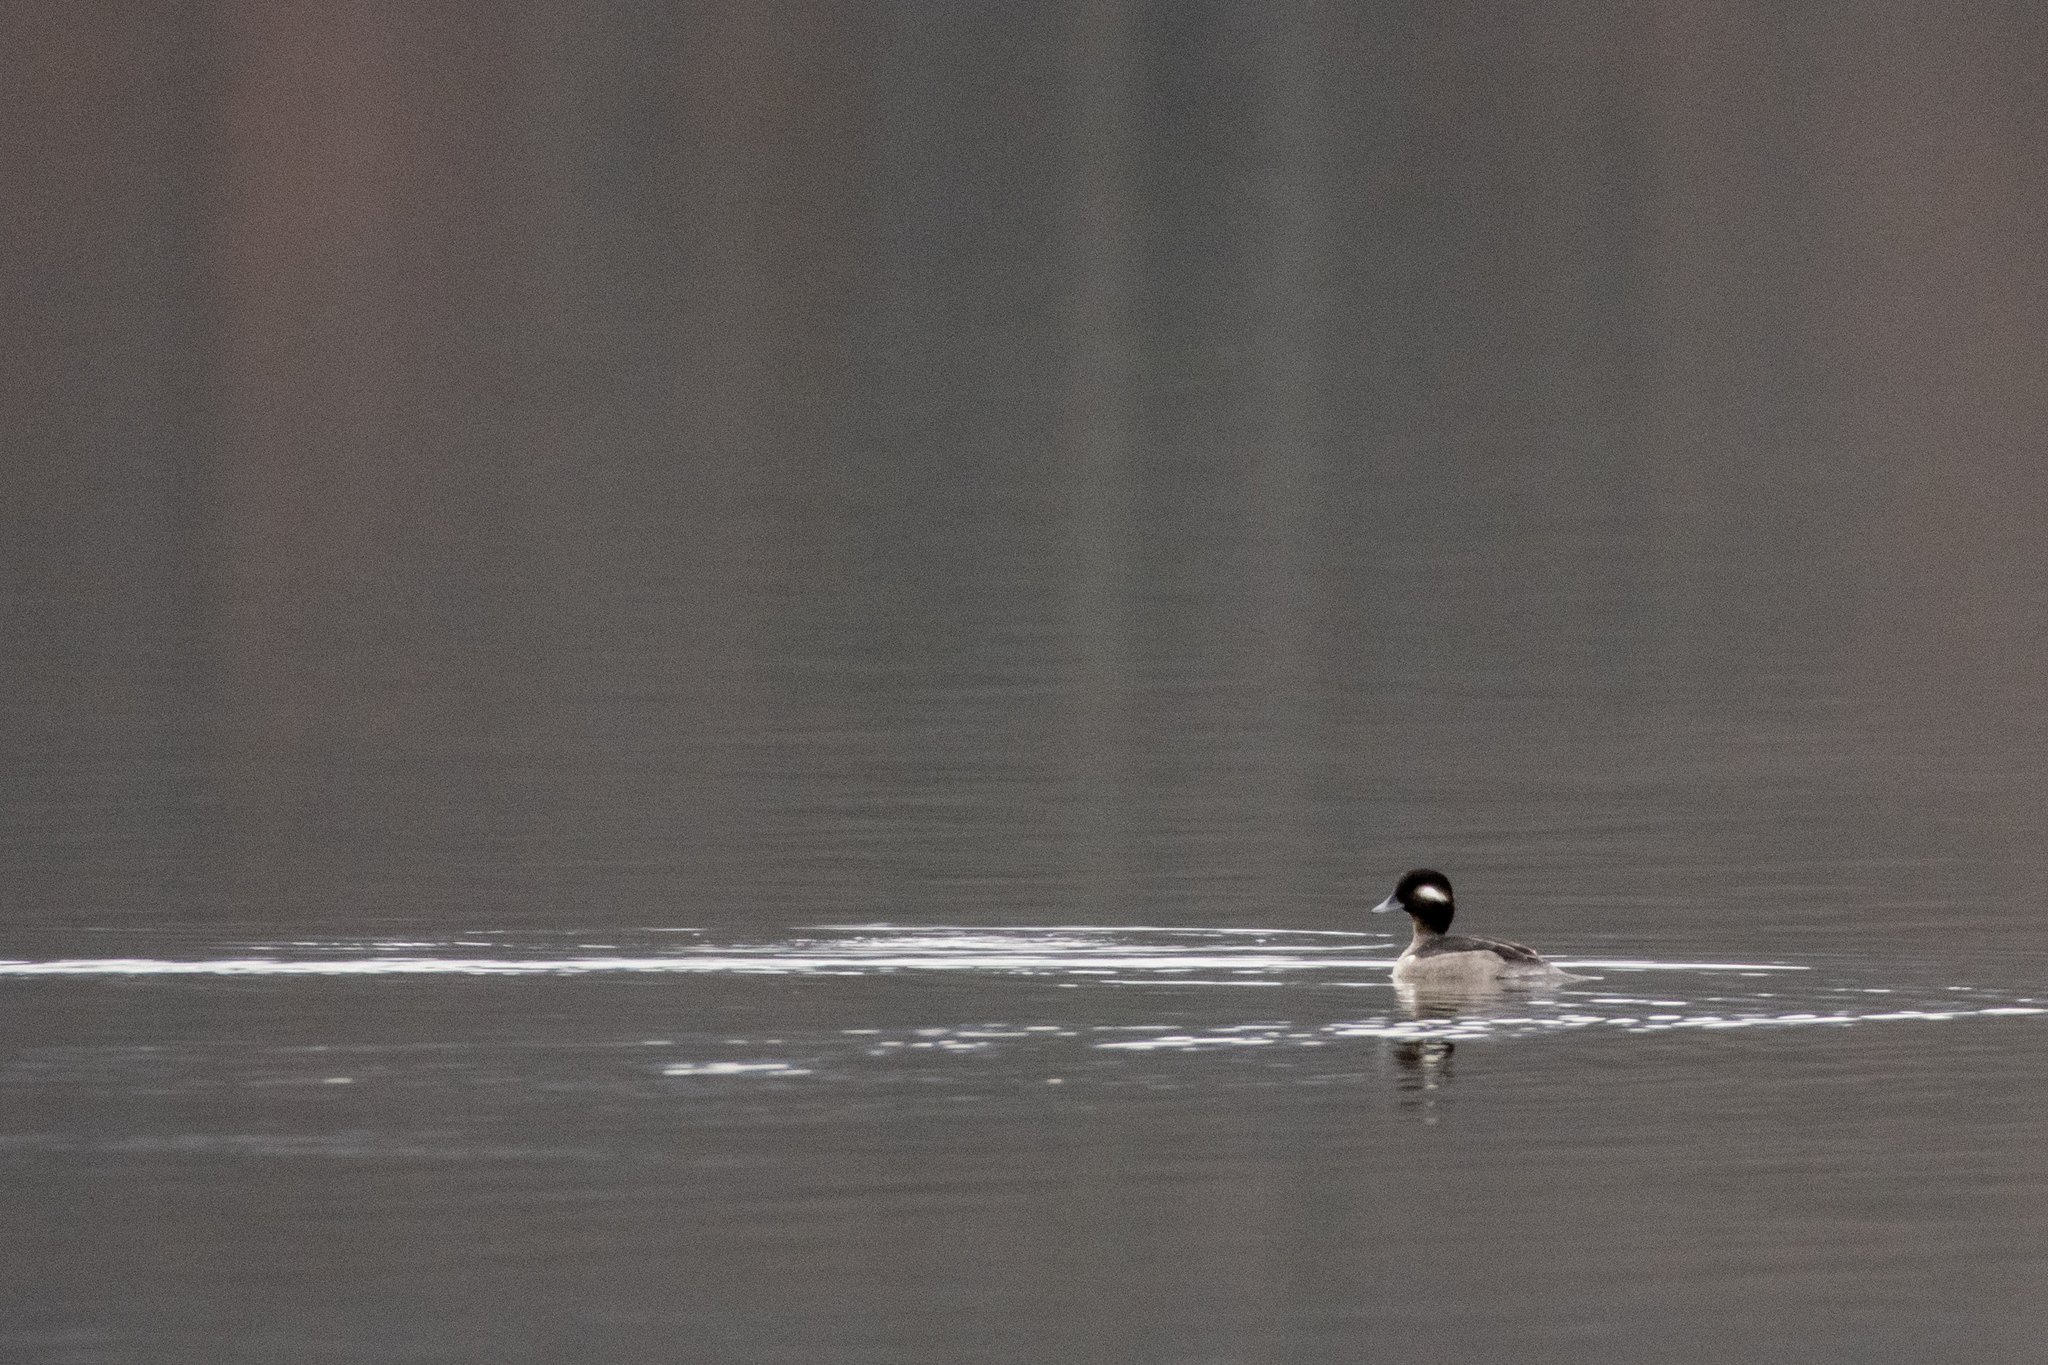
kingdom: Animalia
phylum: Chordata
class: Aves
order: Anseriformes
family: Anatidae
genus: Bucephala
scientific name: Bucephala albeola
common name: Bufflehead
